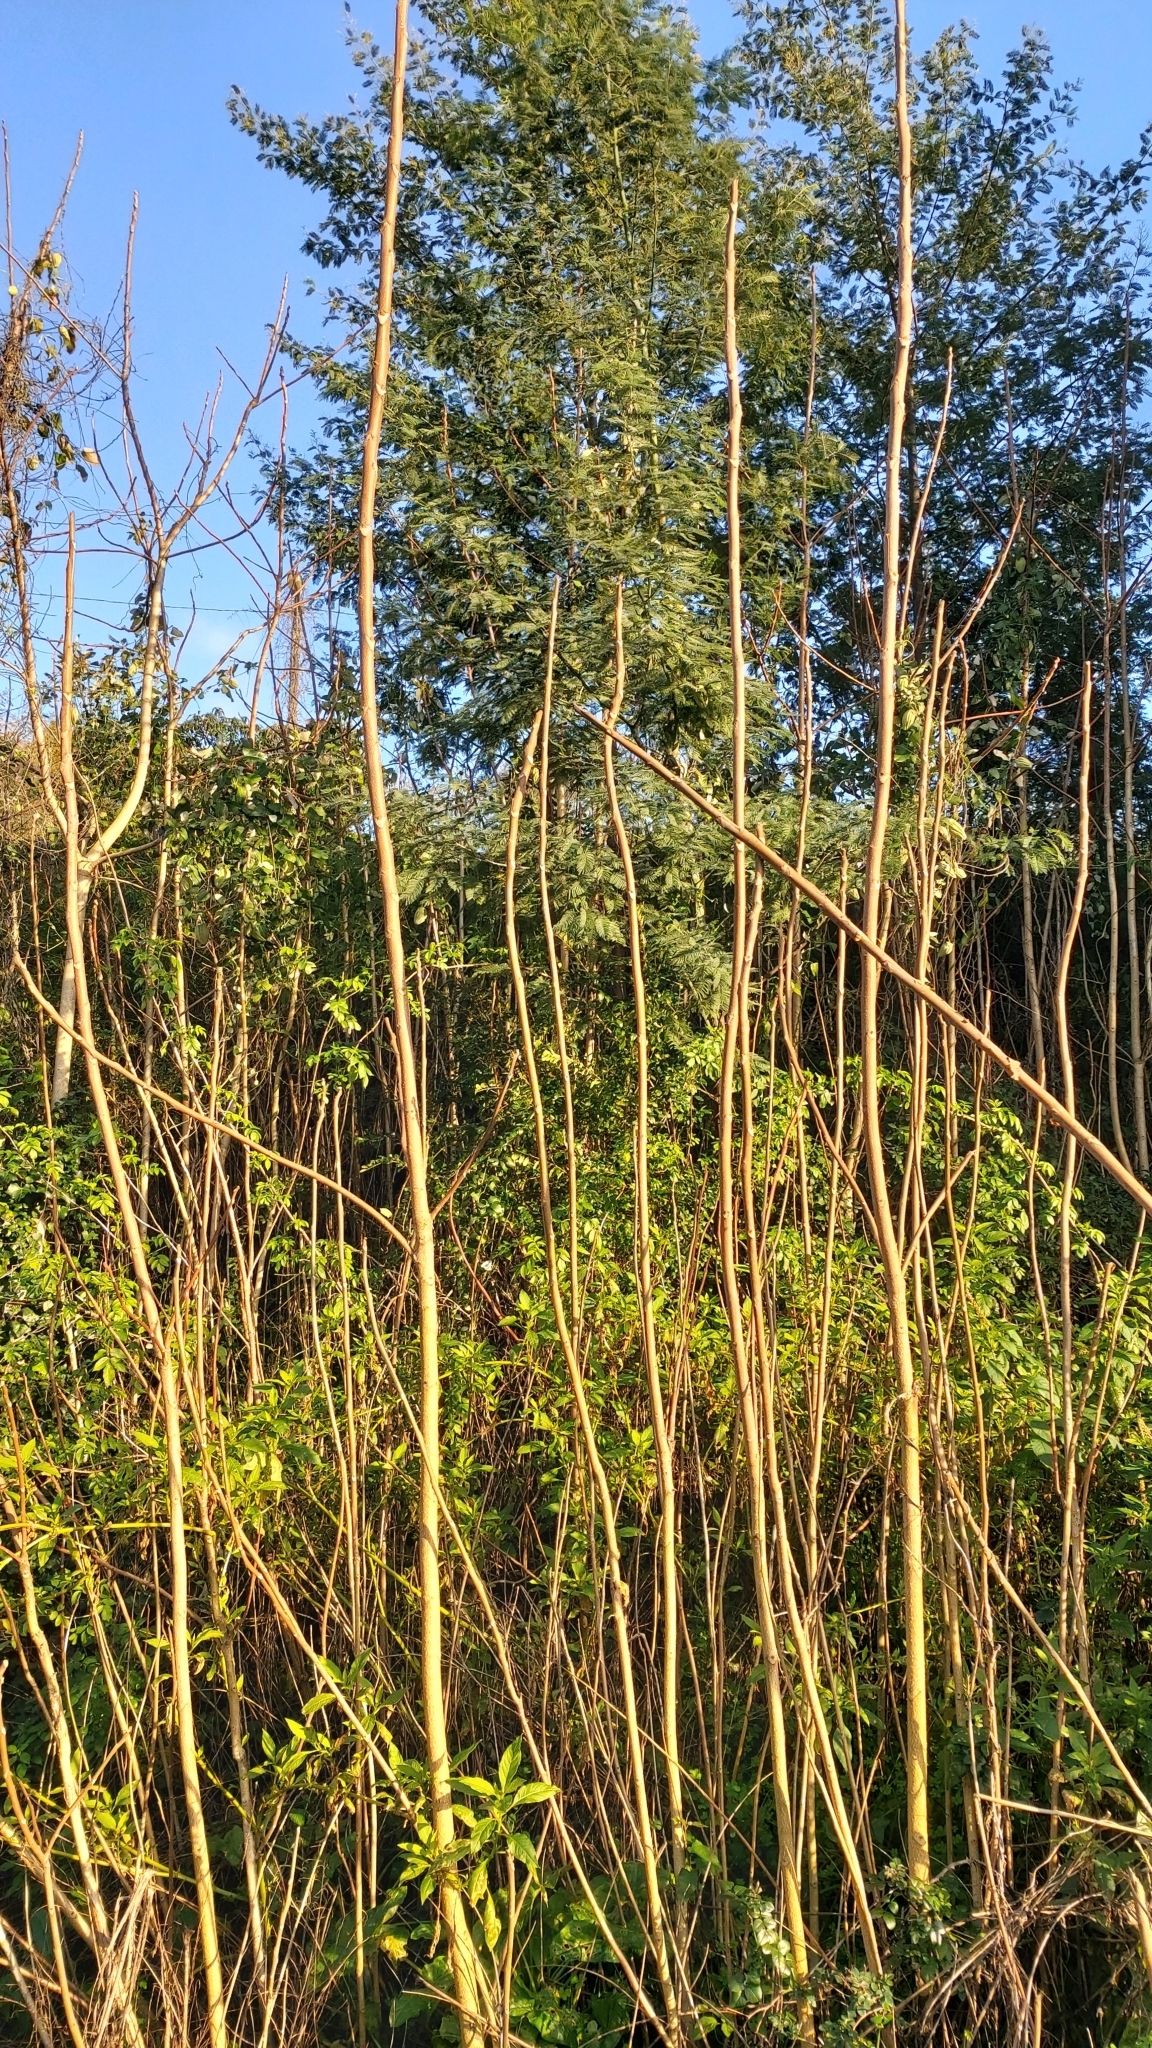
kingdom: Plantae
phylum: Tracheophyta
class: Magnoliopsida
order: Sapindales
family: Simaroubaceae
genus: Ailanthus
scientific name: Ailanthus altissima
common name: Tree-of-heaven
